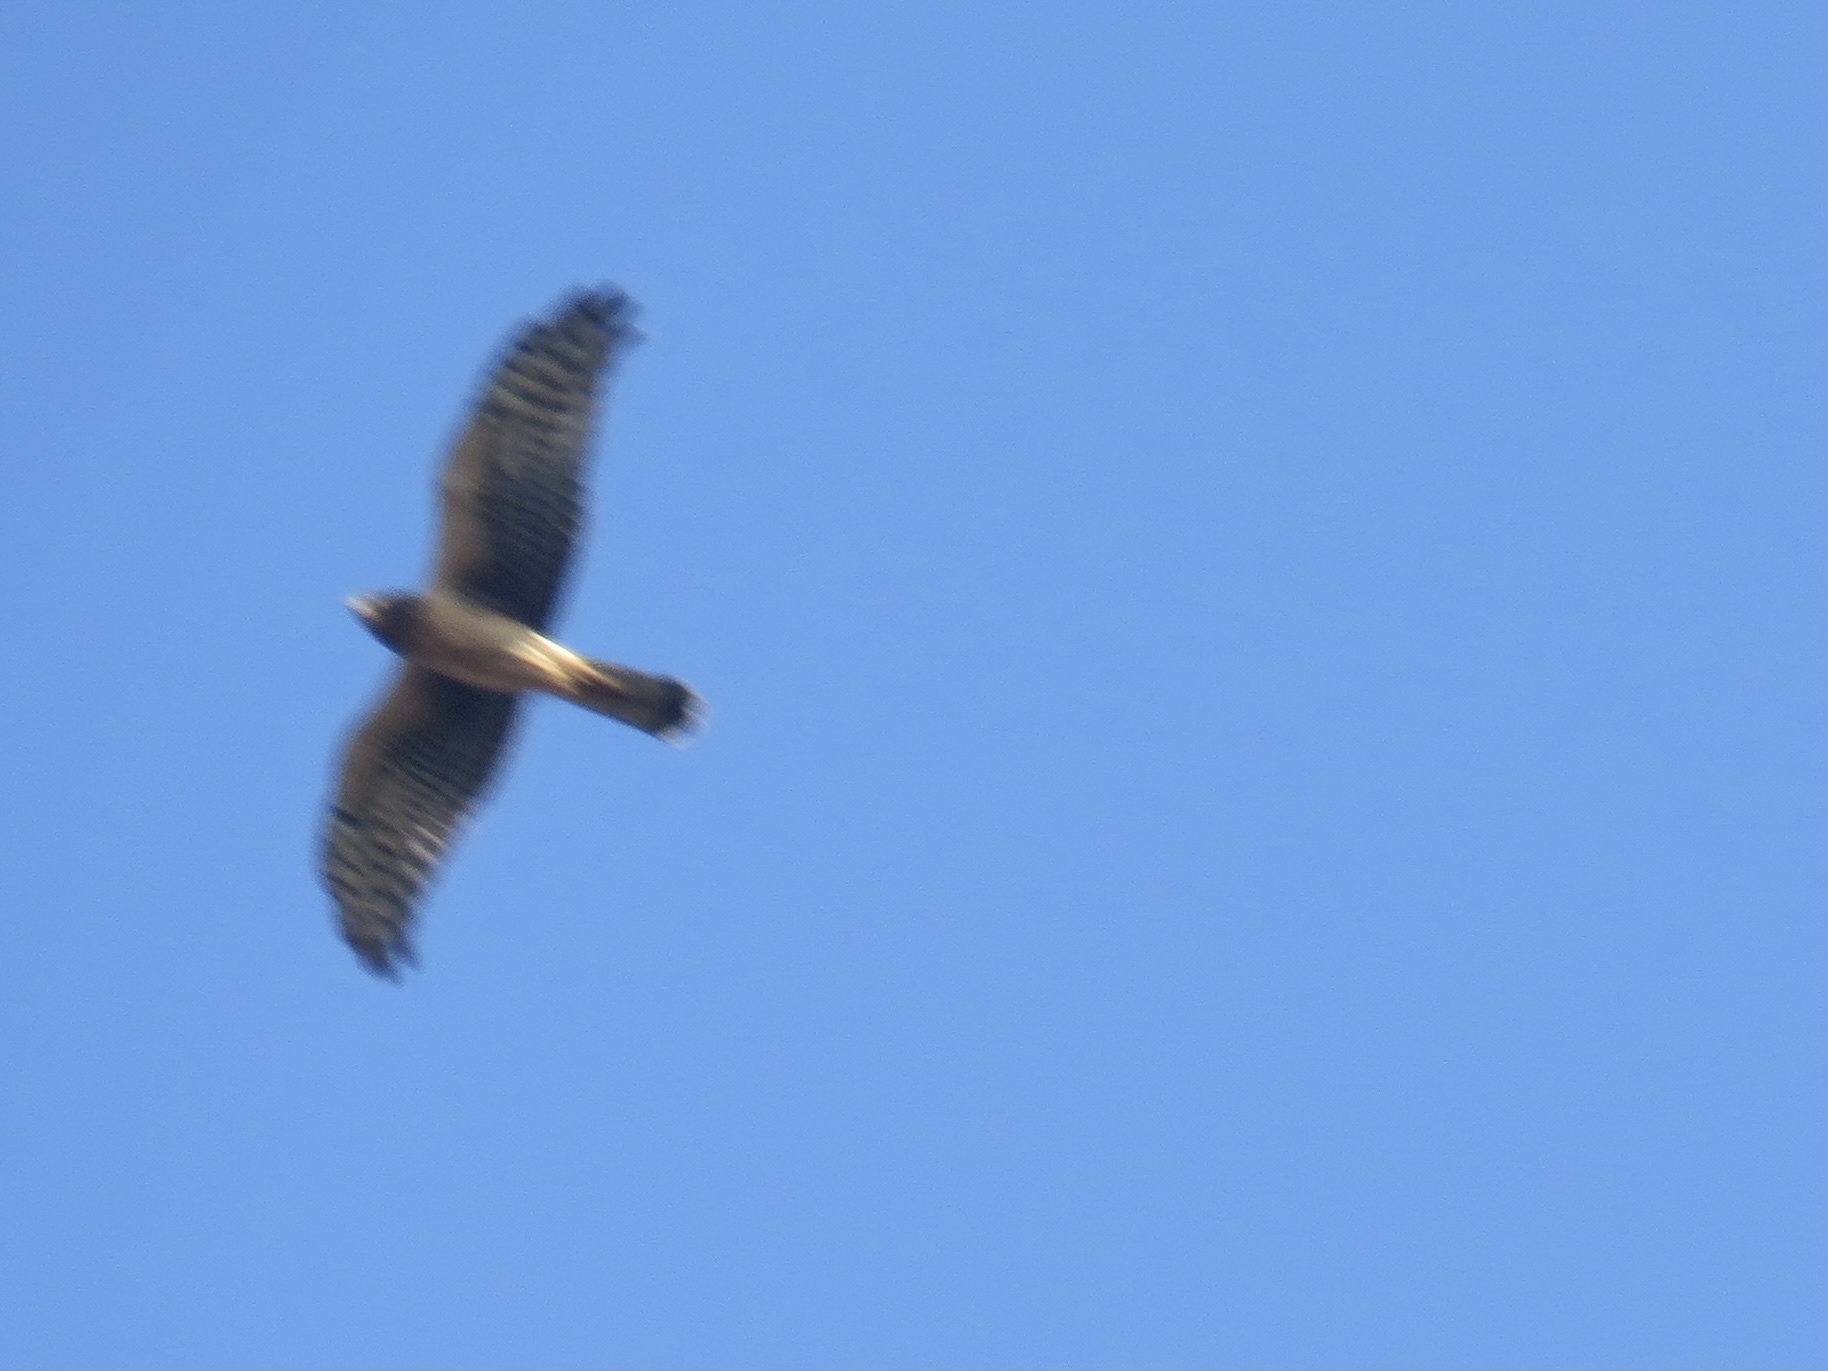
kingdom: Animalia
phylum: Chordata
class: Aves
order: Accipitriformes
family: Accipitridae
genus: Circus
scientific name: Circus cyaneus
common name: Hen harrier
